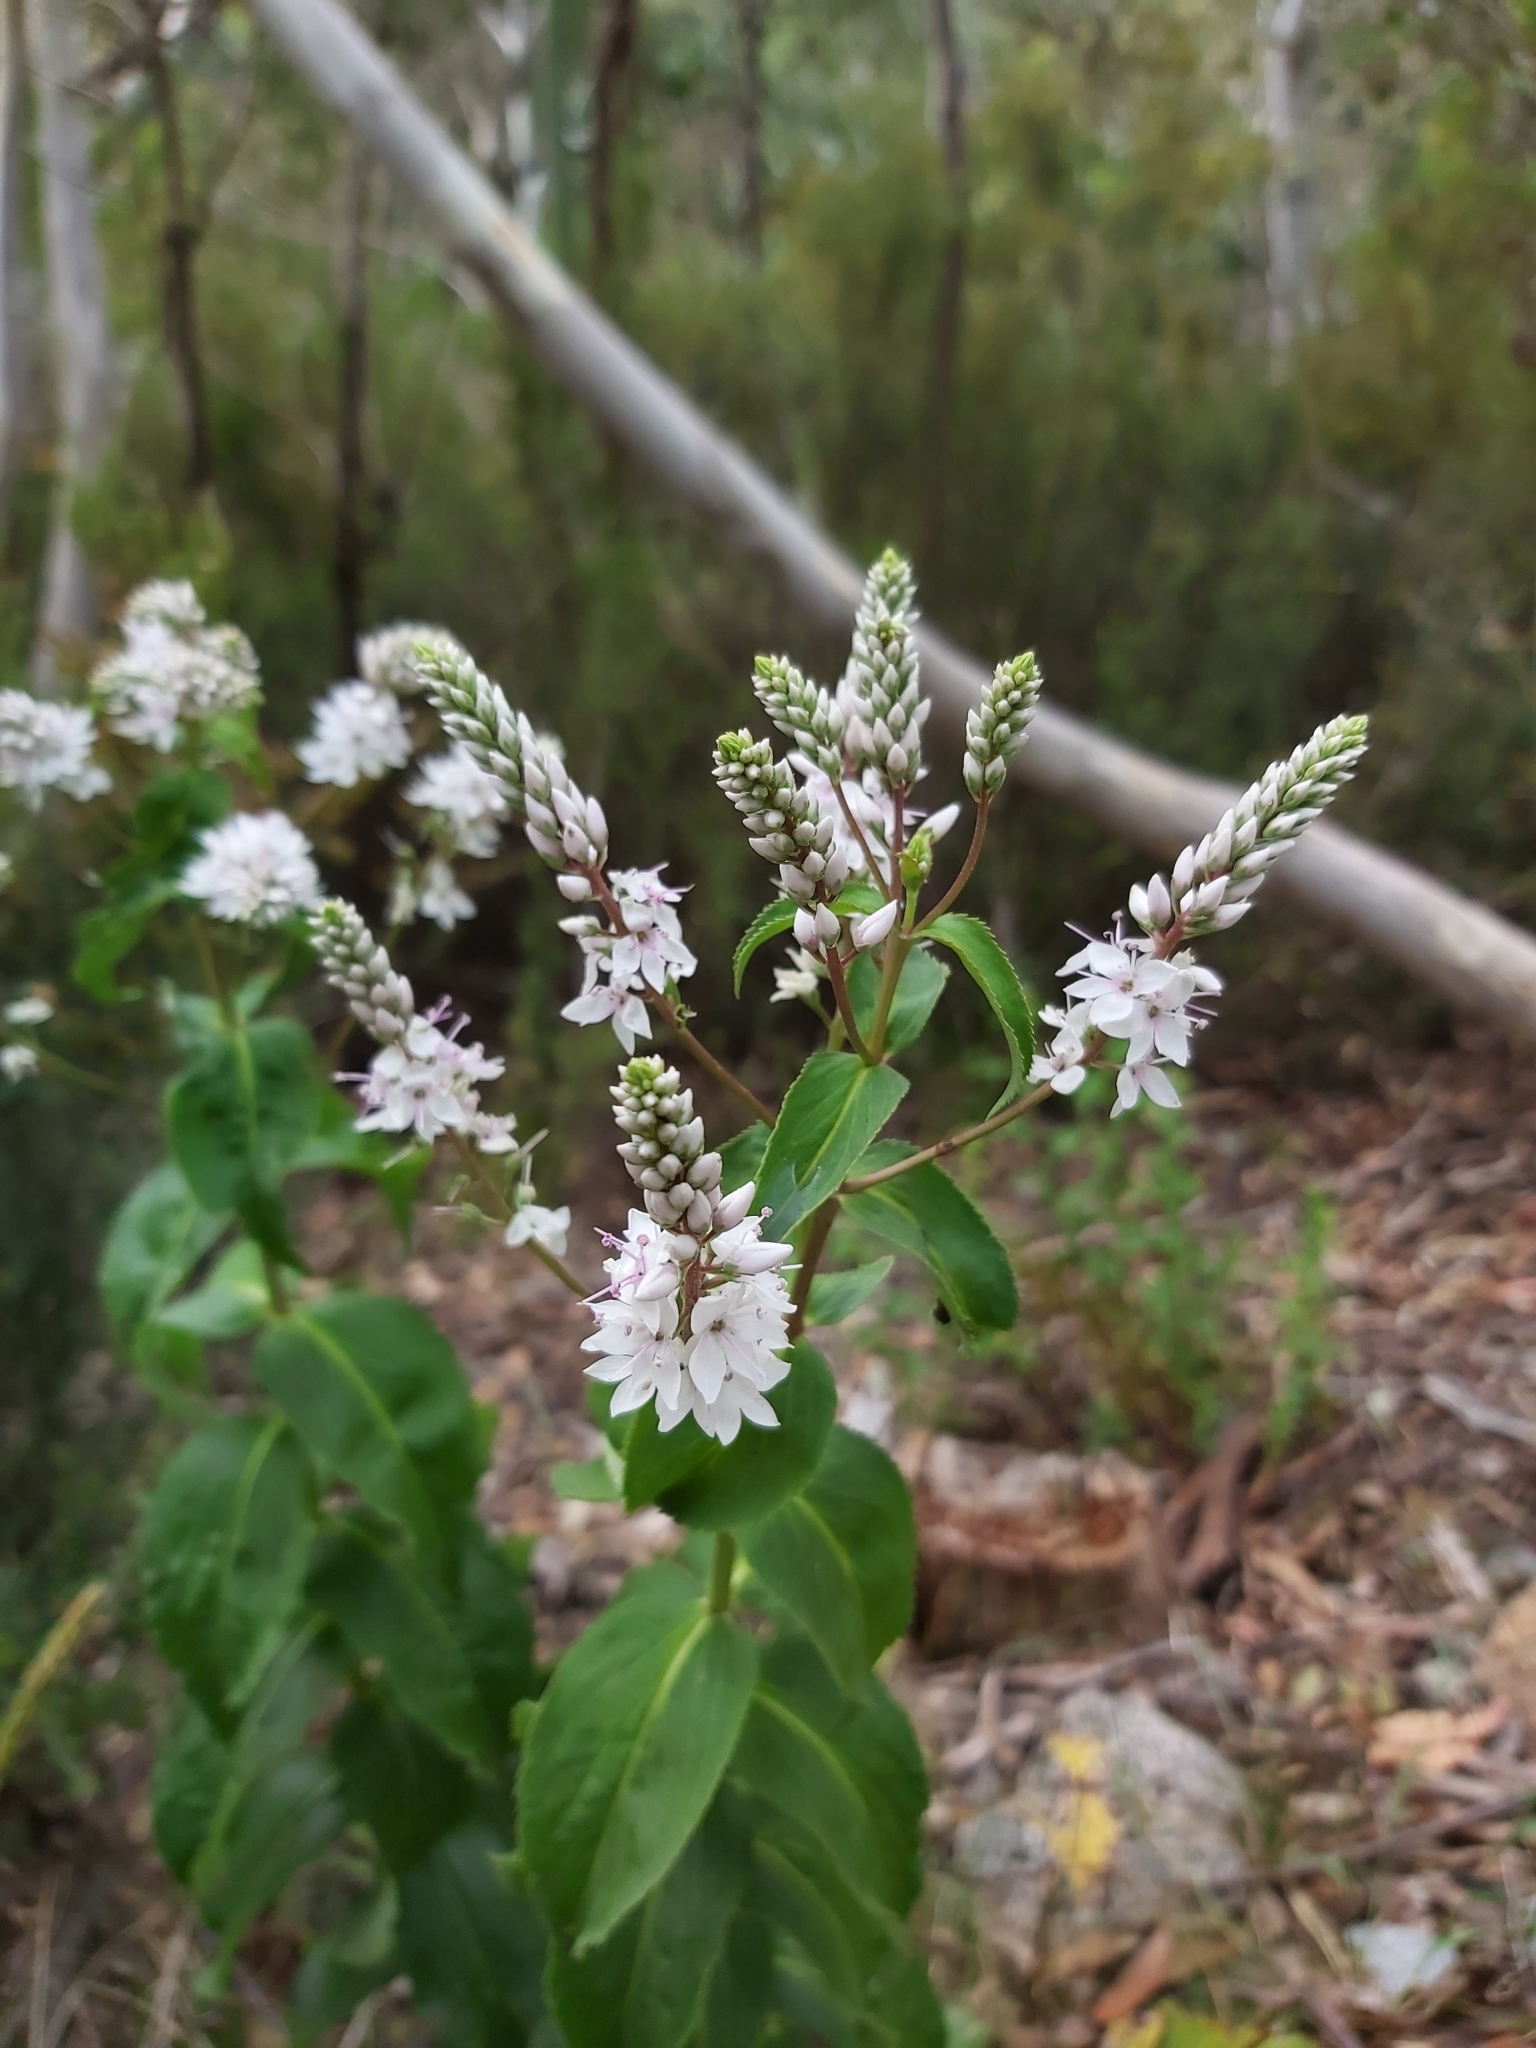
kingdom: Plantae
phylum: Tracheophyta
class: Magnoliopsida
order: Lamiales
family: Plantaginaceae
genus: Veronica
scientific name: Veronica derwentiana
